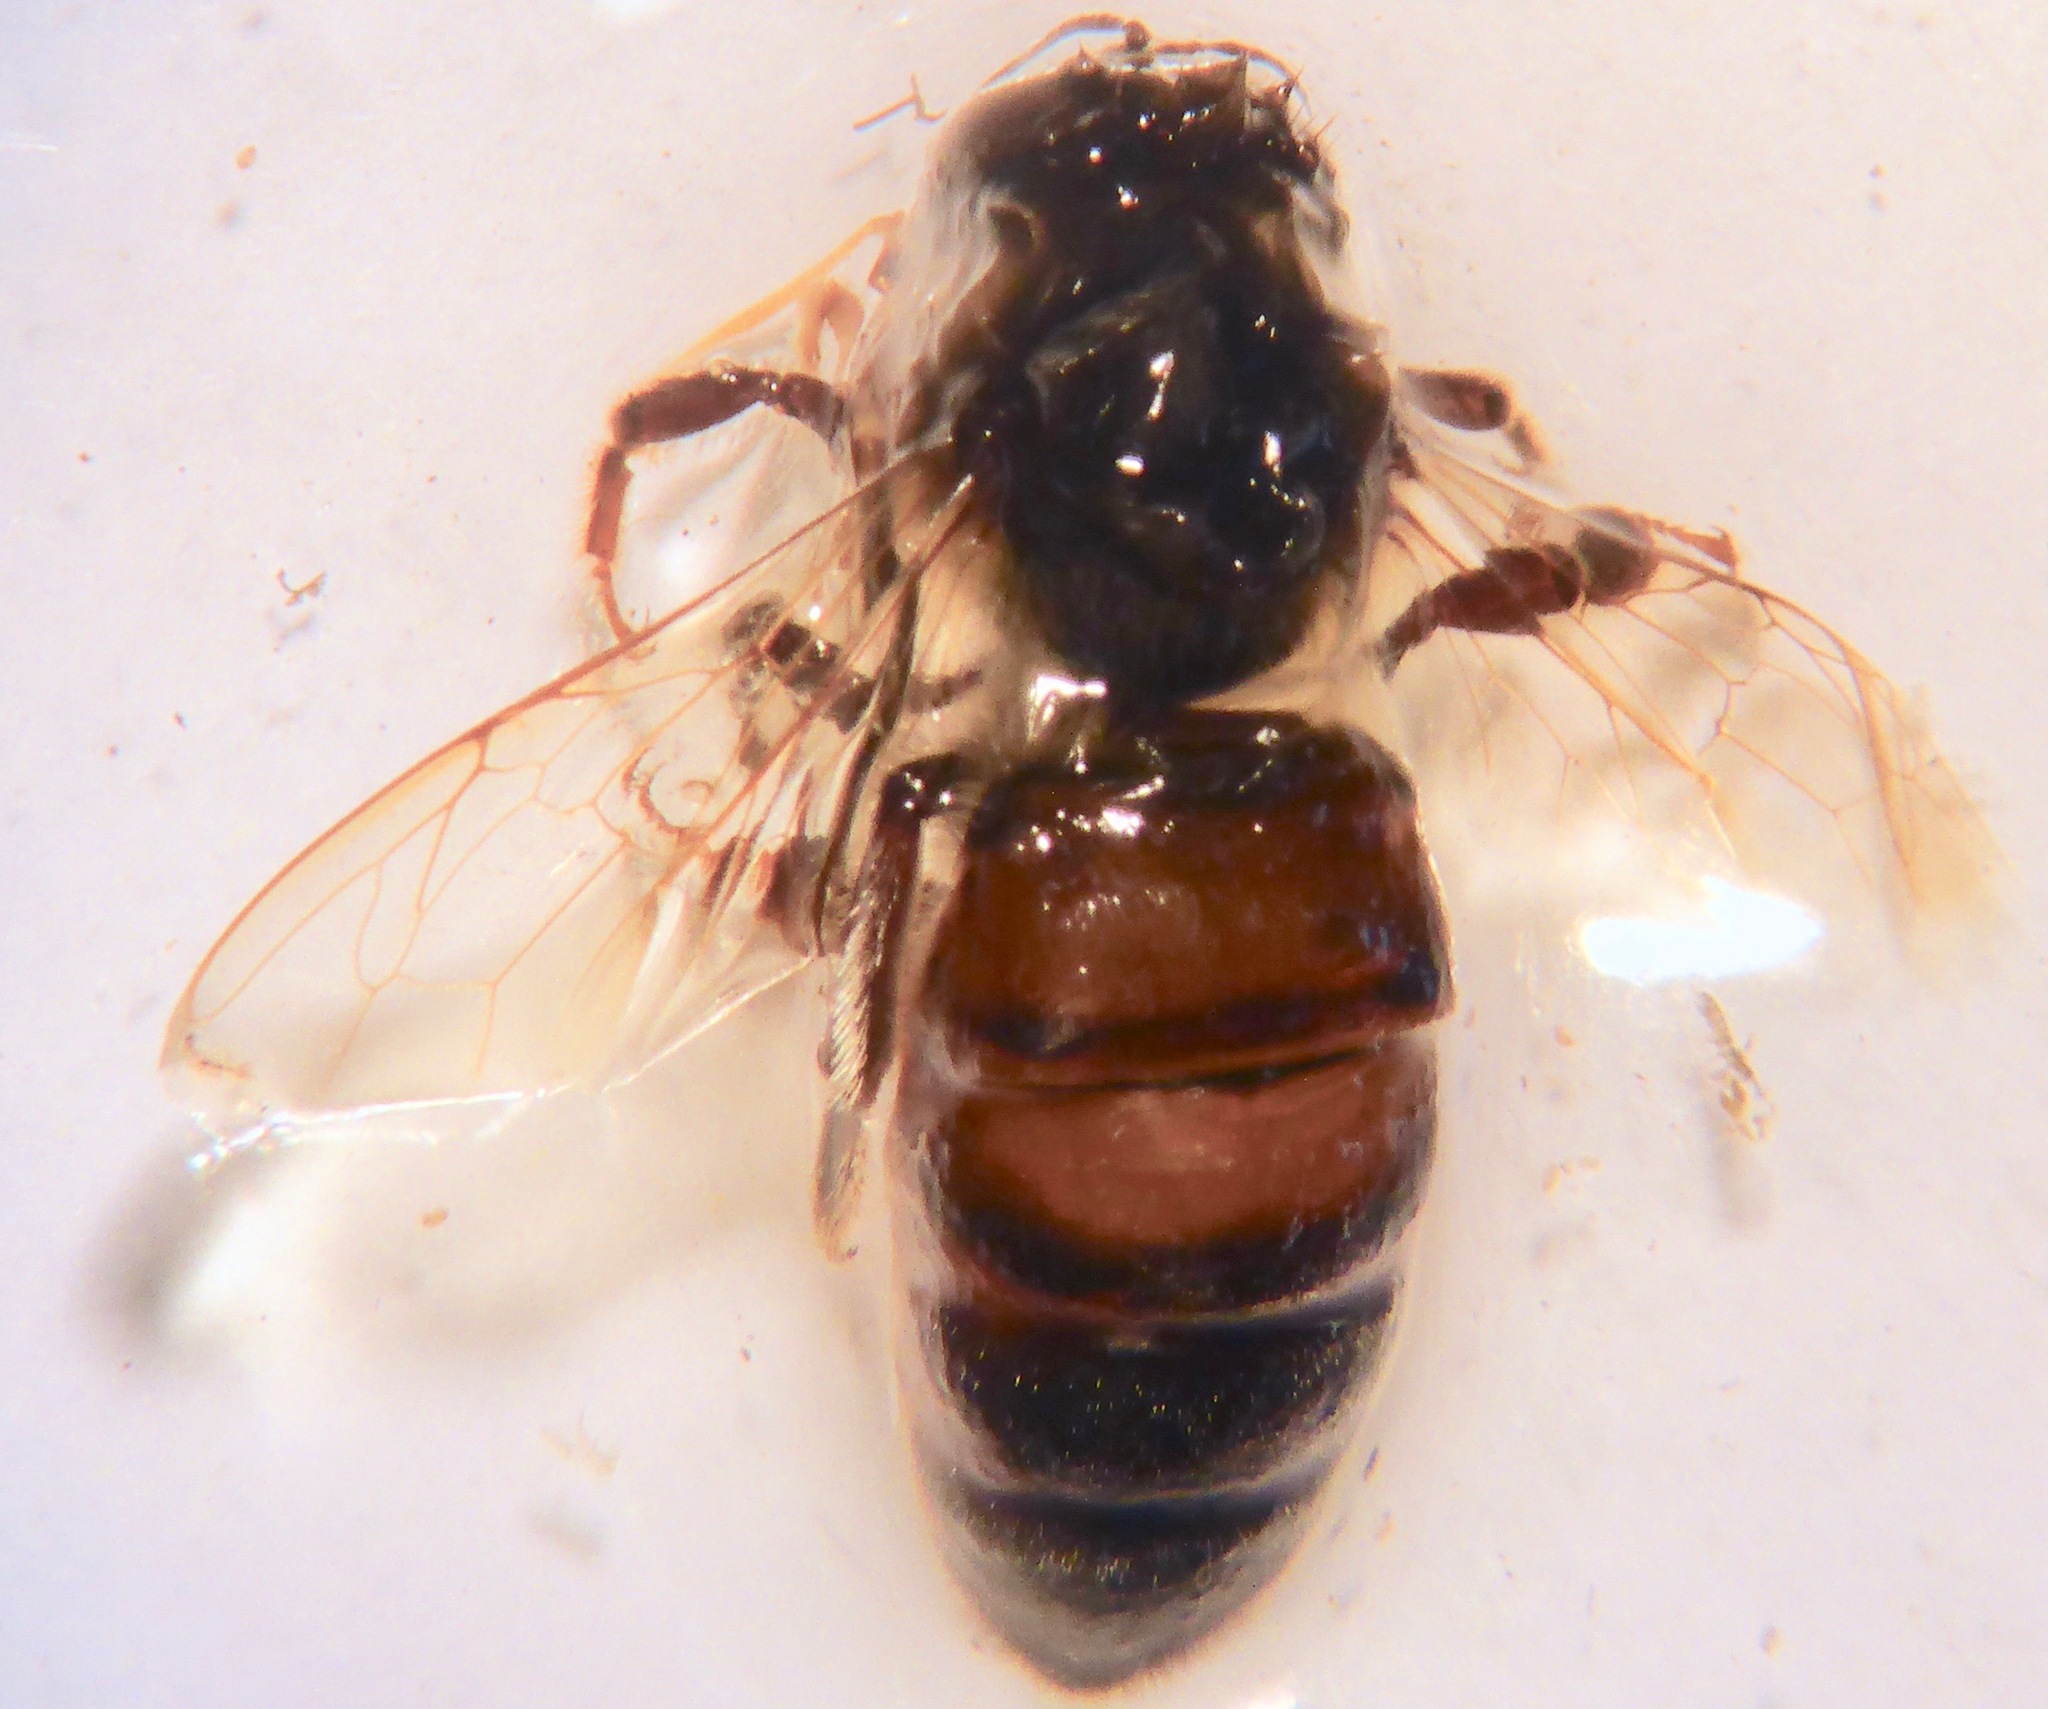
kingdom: Animalia
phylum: Arthropoda
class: Insecta
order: Hymenoptera
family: Apidae
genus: Apis
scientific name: Apis mellifera
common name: Honey bee
